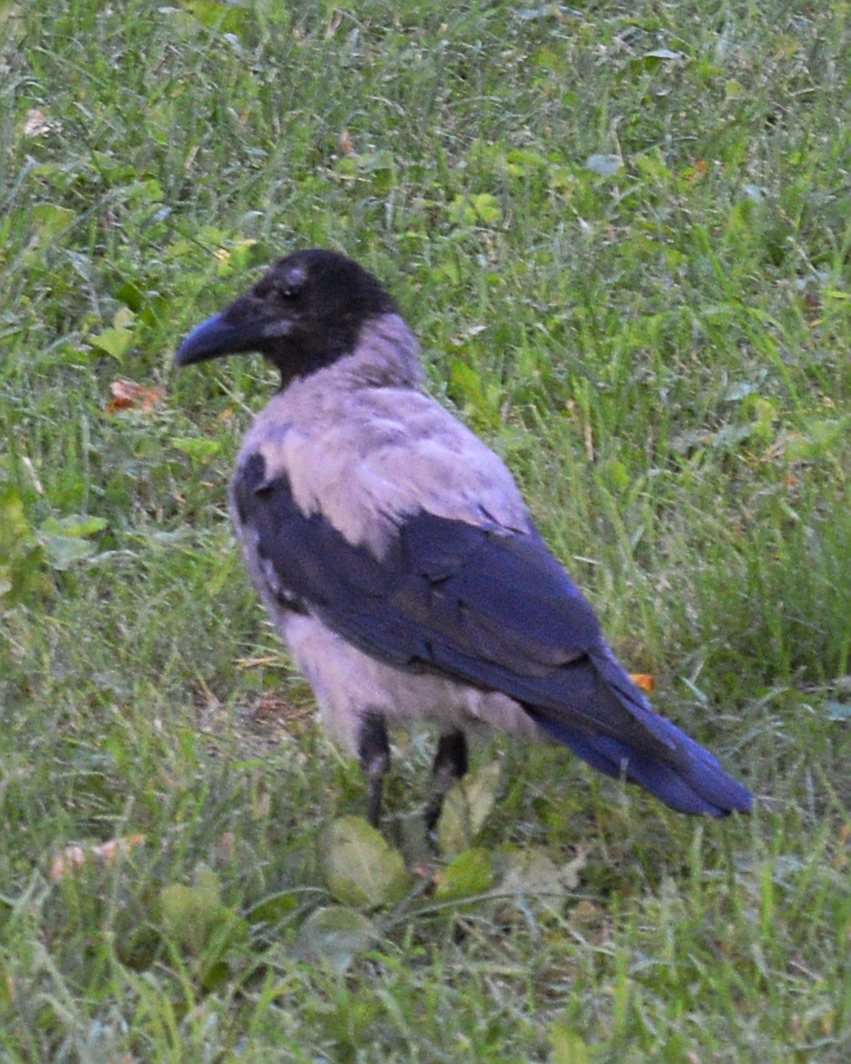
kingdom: Animalia
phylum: Chordata
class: Aves
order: Passeriformes
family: Corvidae
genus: Corvus
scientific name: Corvus cornix
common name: Hooded crow
